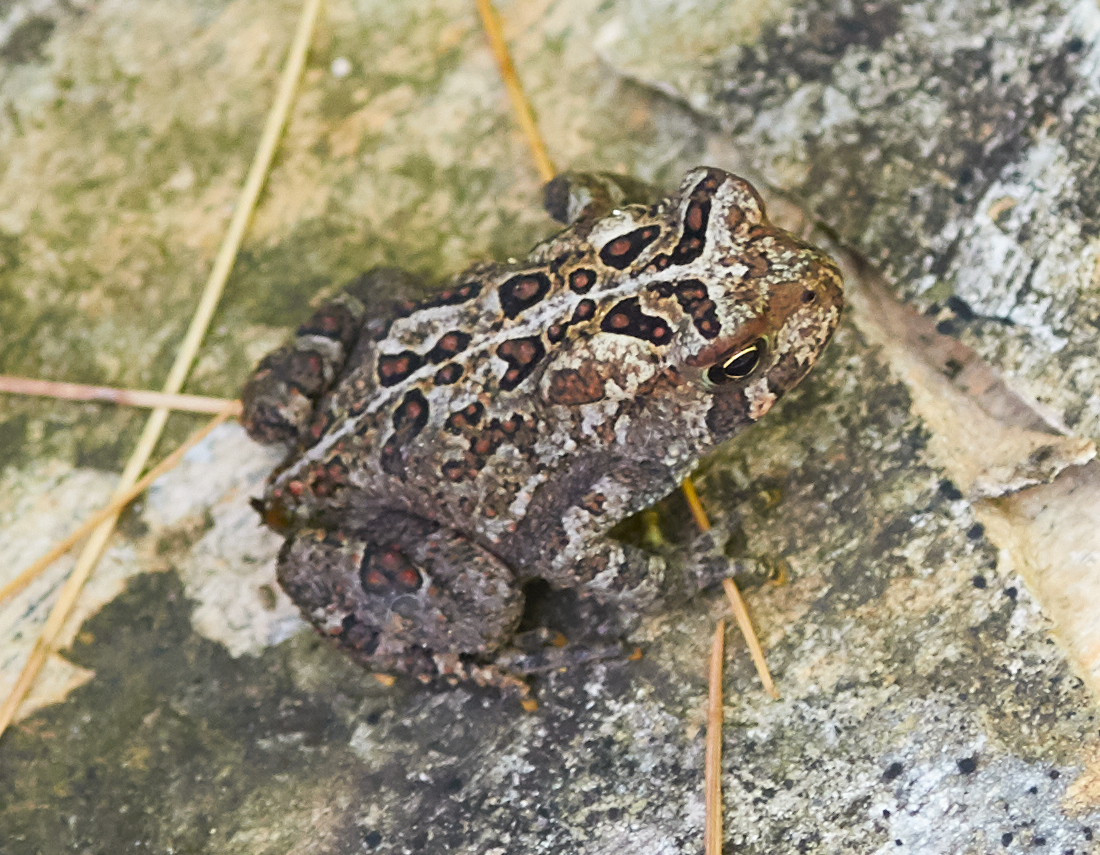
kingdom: Animalia
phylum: Chordata
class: Amphibia
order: Anura
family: Bufonidae
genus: Anaxyrus
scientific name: Anaxyrus americanus
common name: American toad
